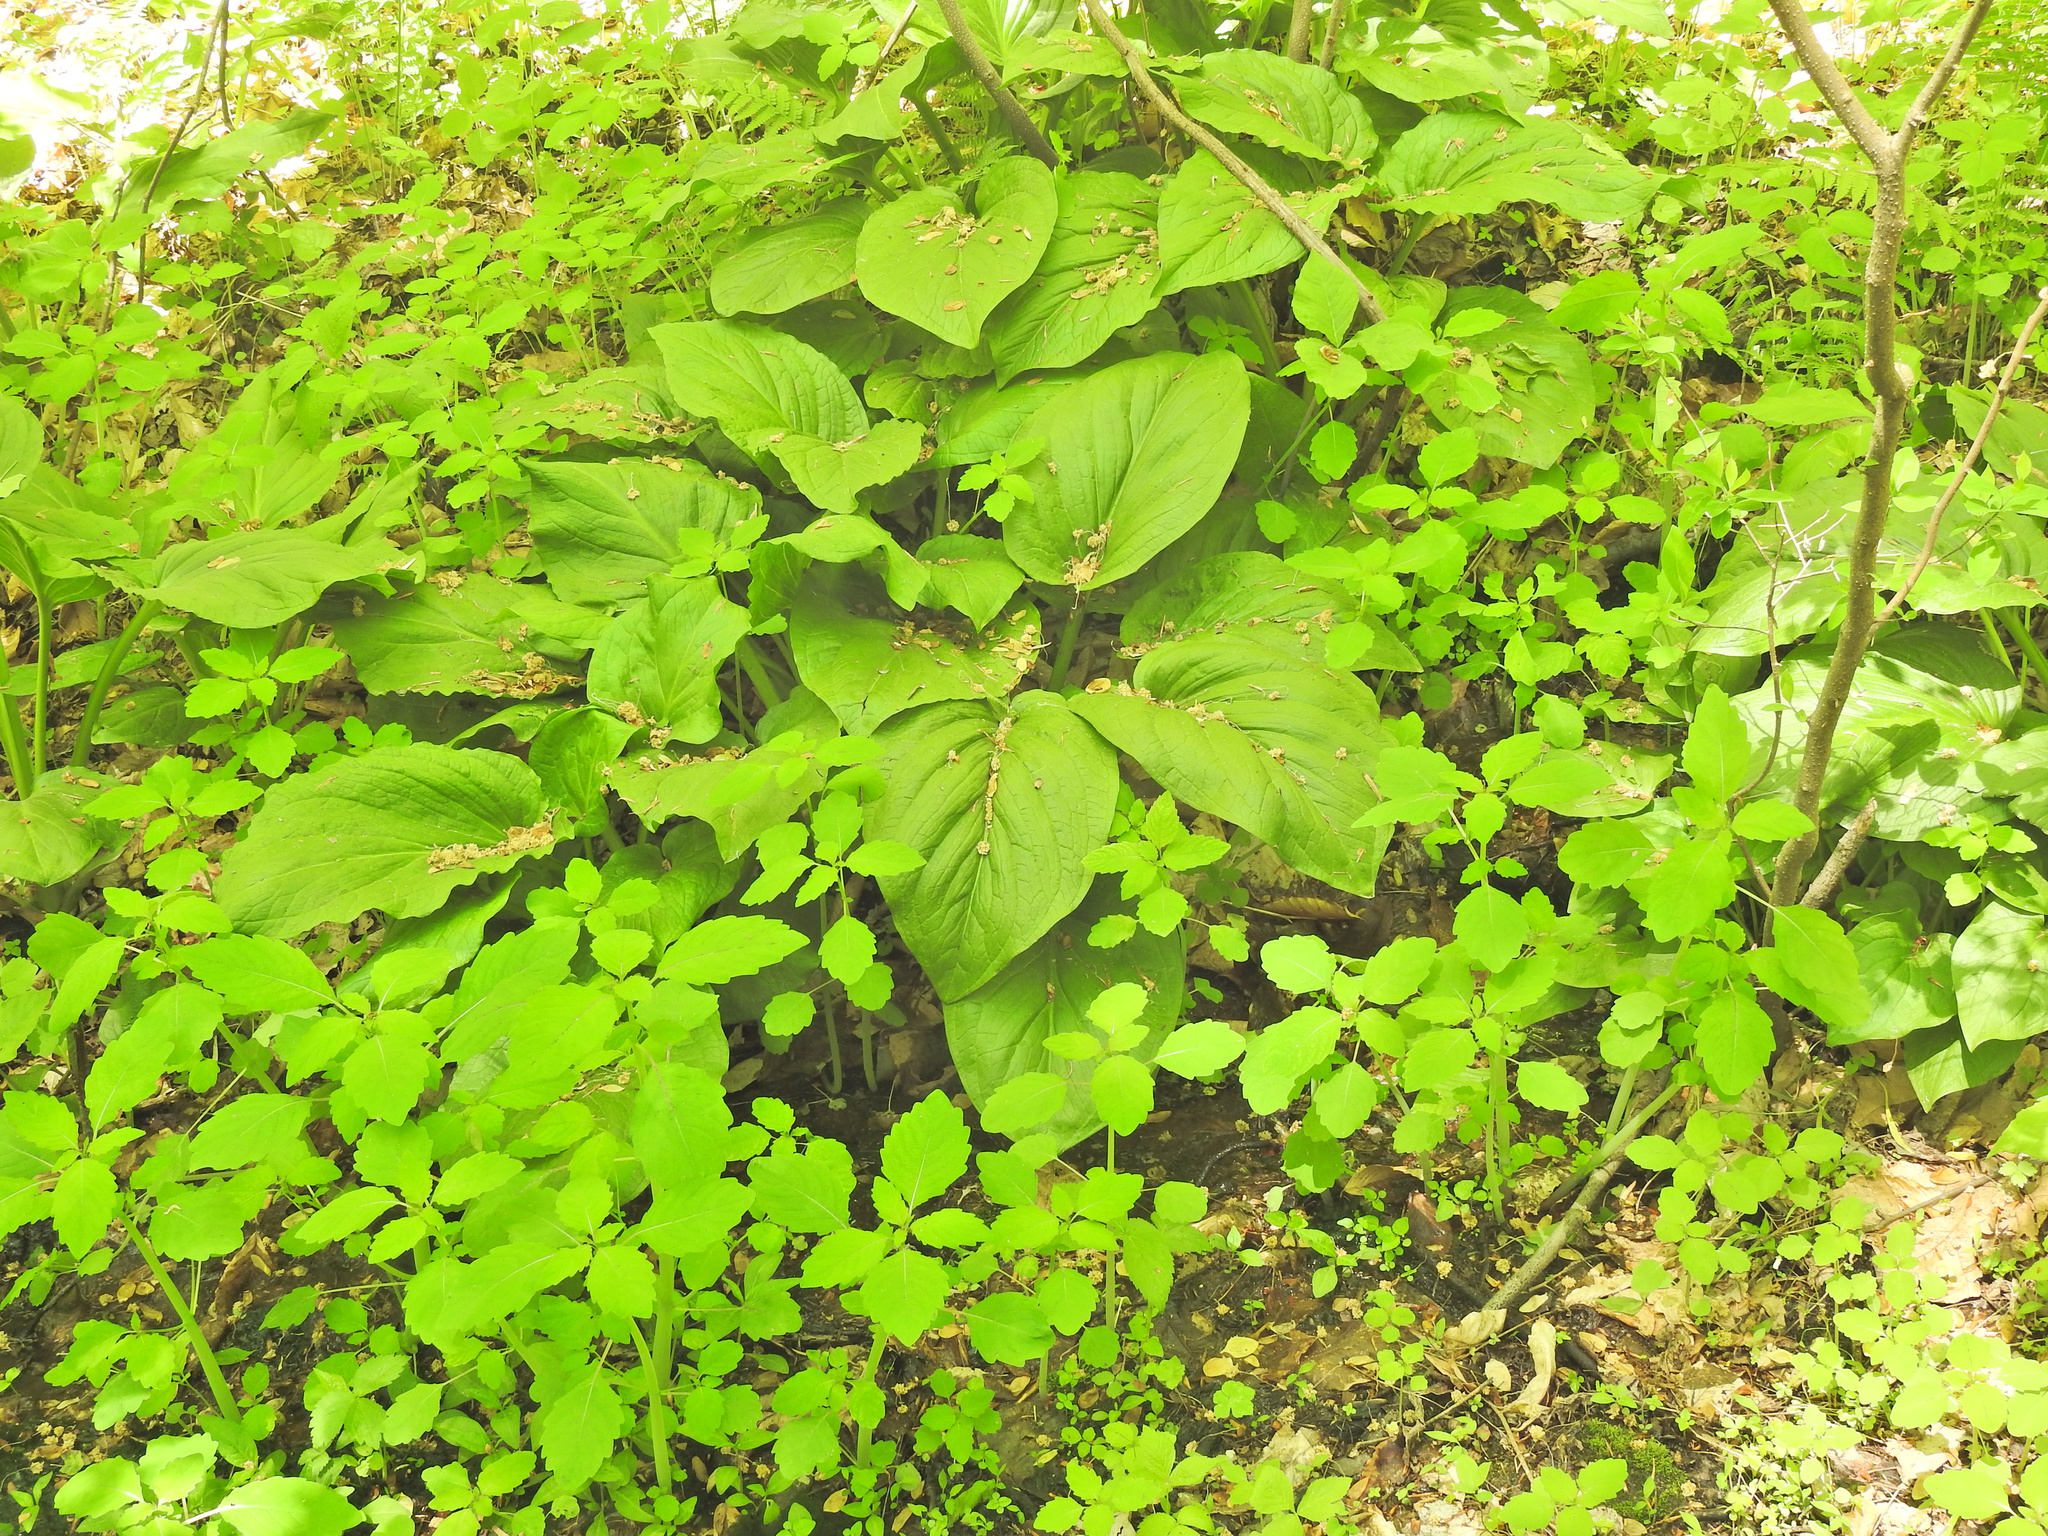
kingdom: Plantae
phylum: Tracheophyta
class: Liliopsida
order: Alismatales
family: Araceae
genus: Symplocarpus
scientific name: Symplocarpus foetidus
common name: Eastern skunk cabbage
